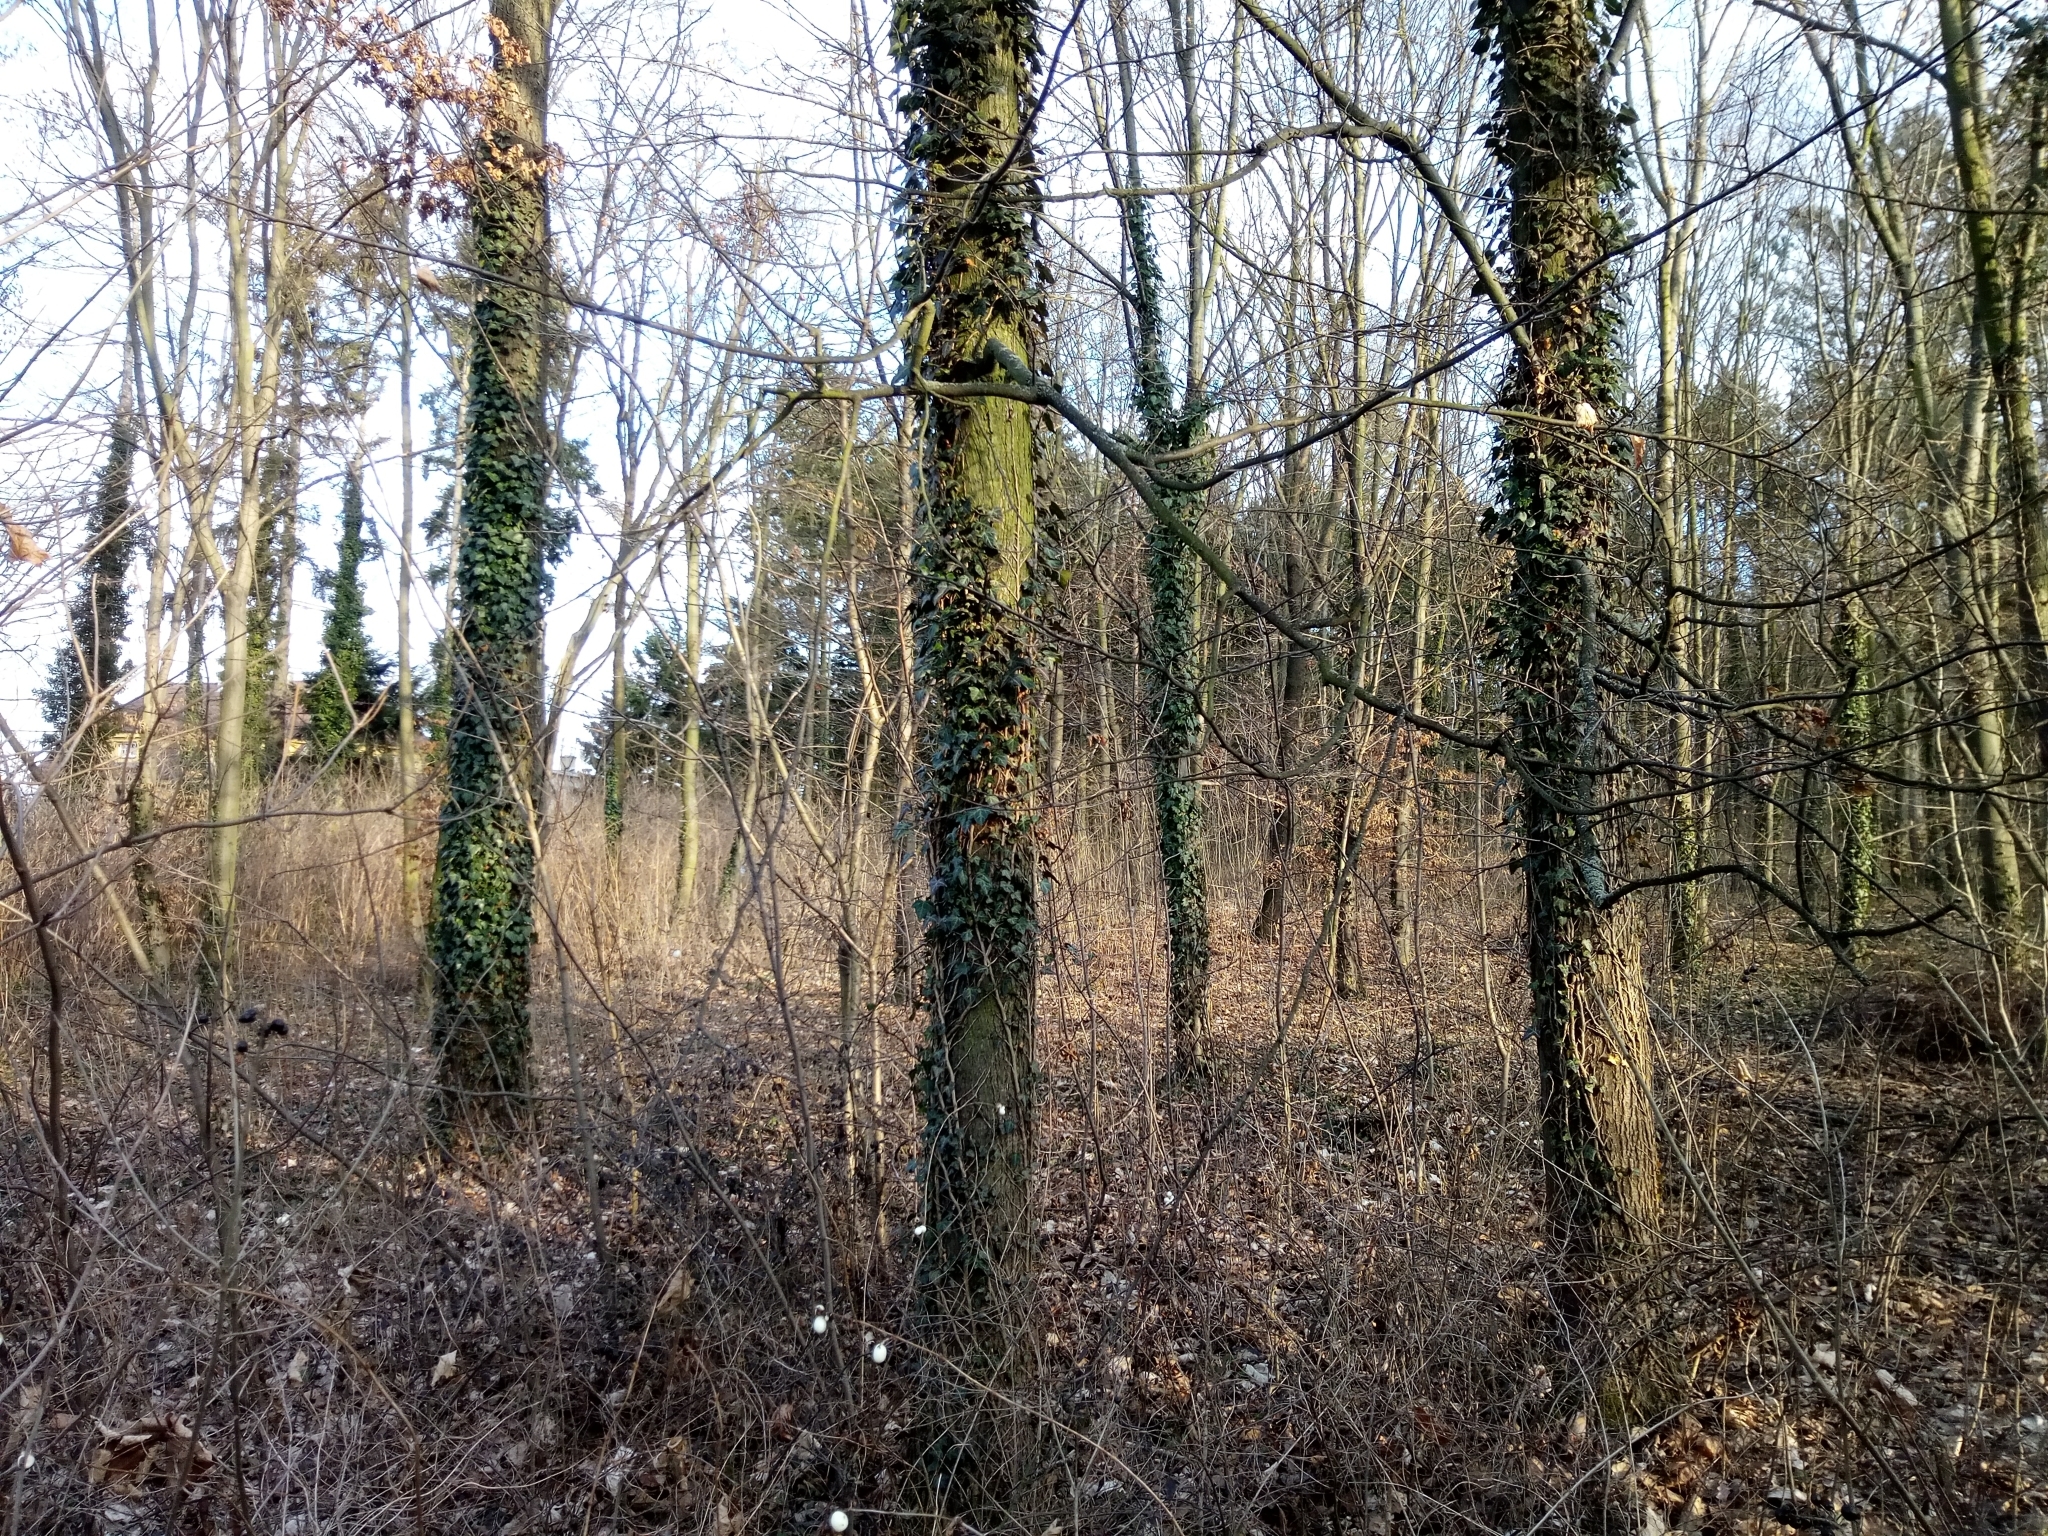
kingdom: Plantae
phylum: Tracheophyta
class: Magnoliopsida
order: Apiales
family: Araliaceae
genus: Hedera
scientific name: Hedera helix
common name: Ivy
